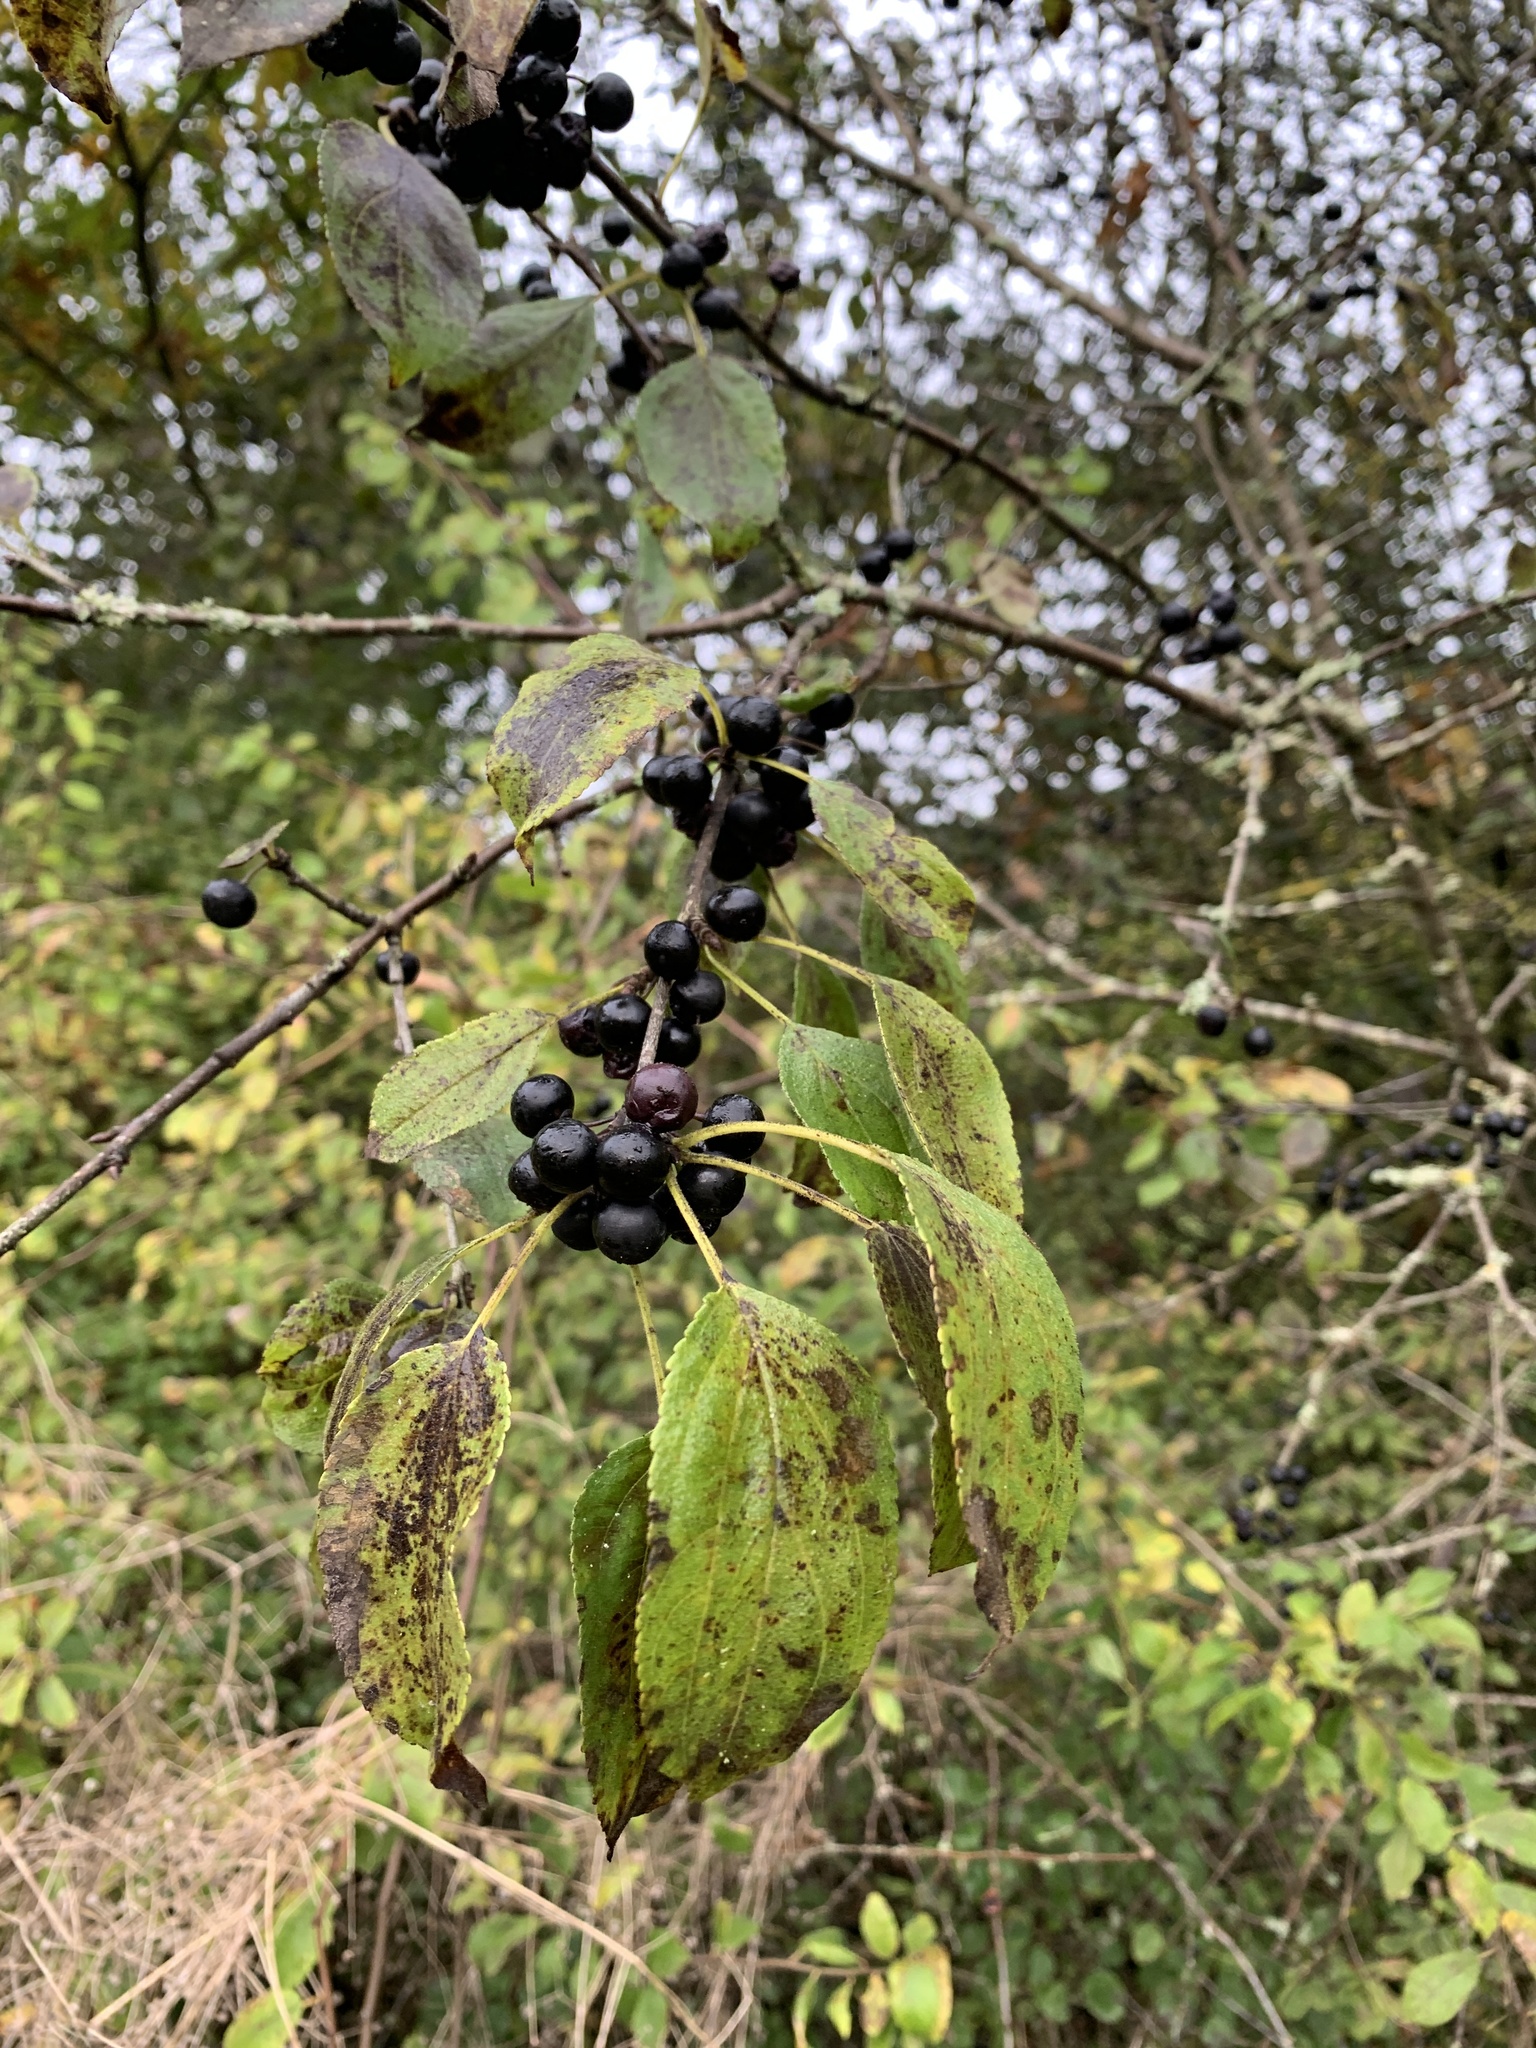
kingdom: Plantae
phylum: Tracheophyta
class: Magnoliopsida
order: Rosales
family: Rhamnaceae
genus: Rhamnus
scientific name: Rhamnus cathartica
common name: Common buckthorn
